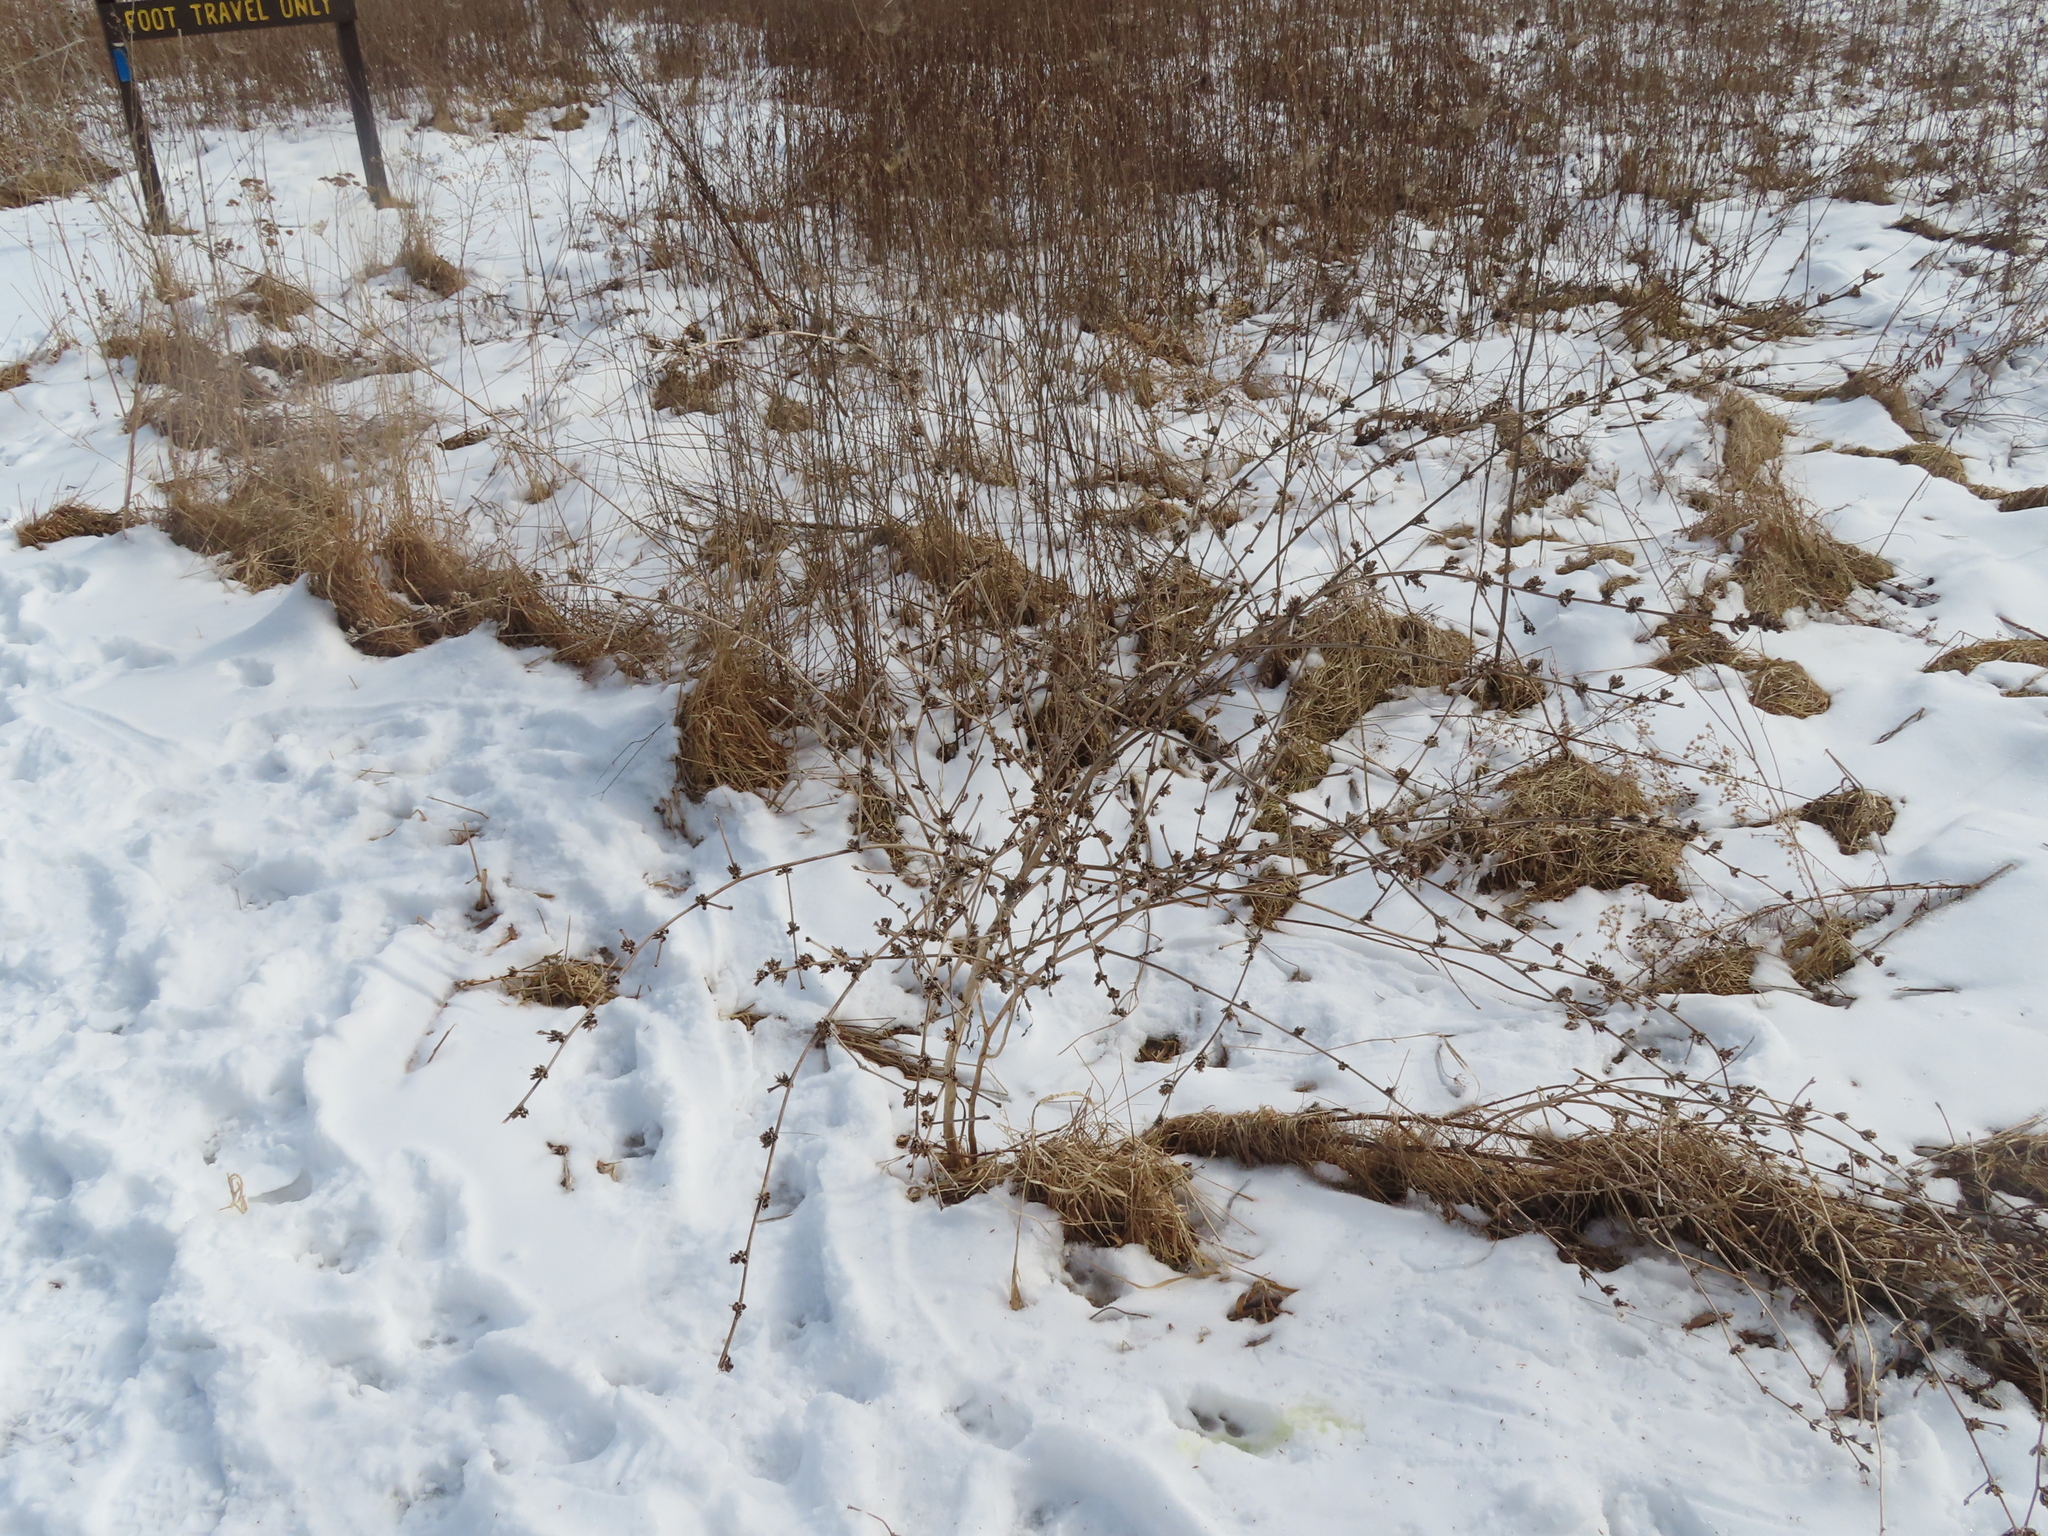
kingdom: Plantae
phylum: Tracheophyta
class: Magnoliopsida
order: Asterales
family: Asteraceae
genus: Cichorium
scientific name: Cichorium intybus
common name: Chicory
